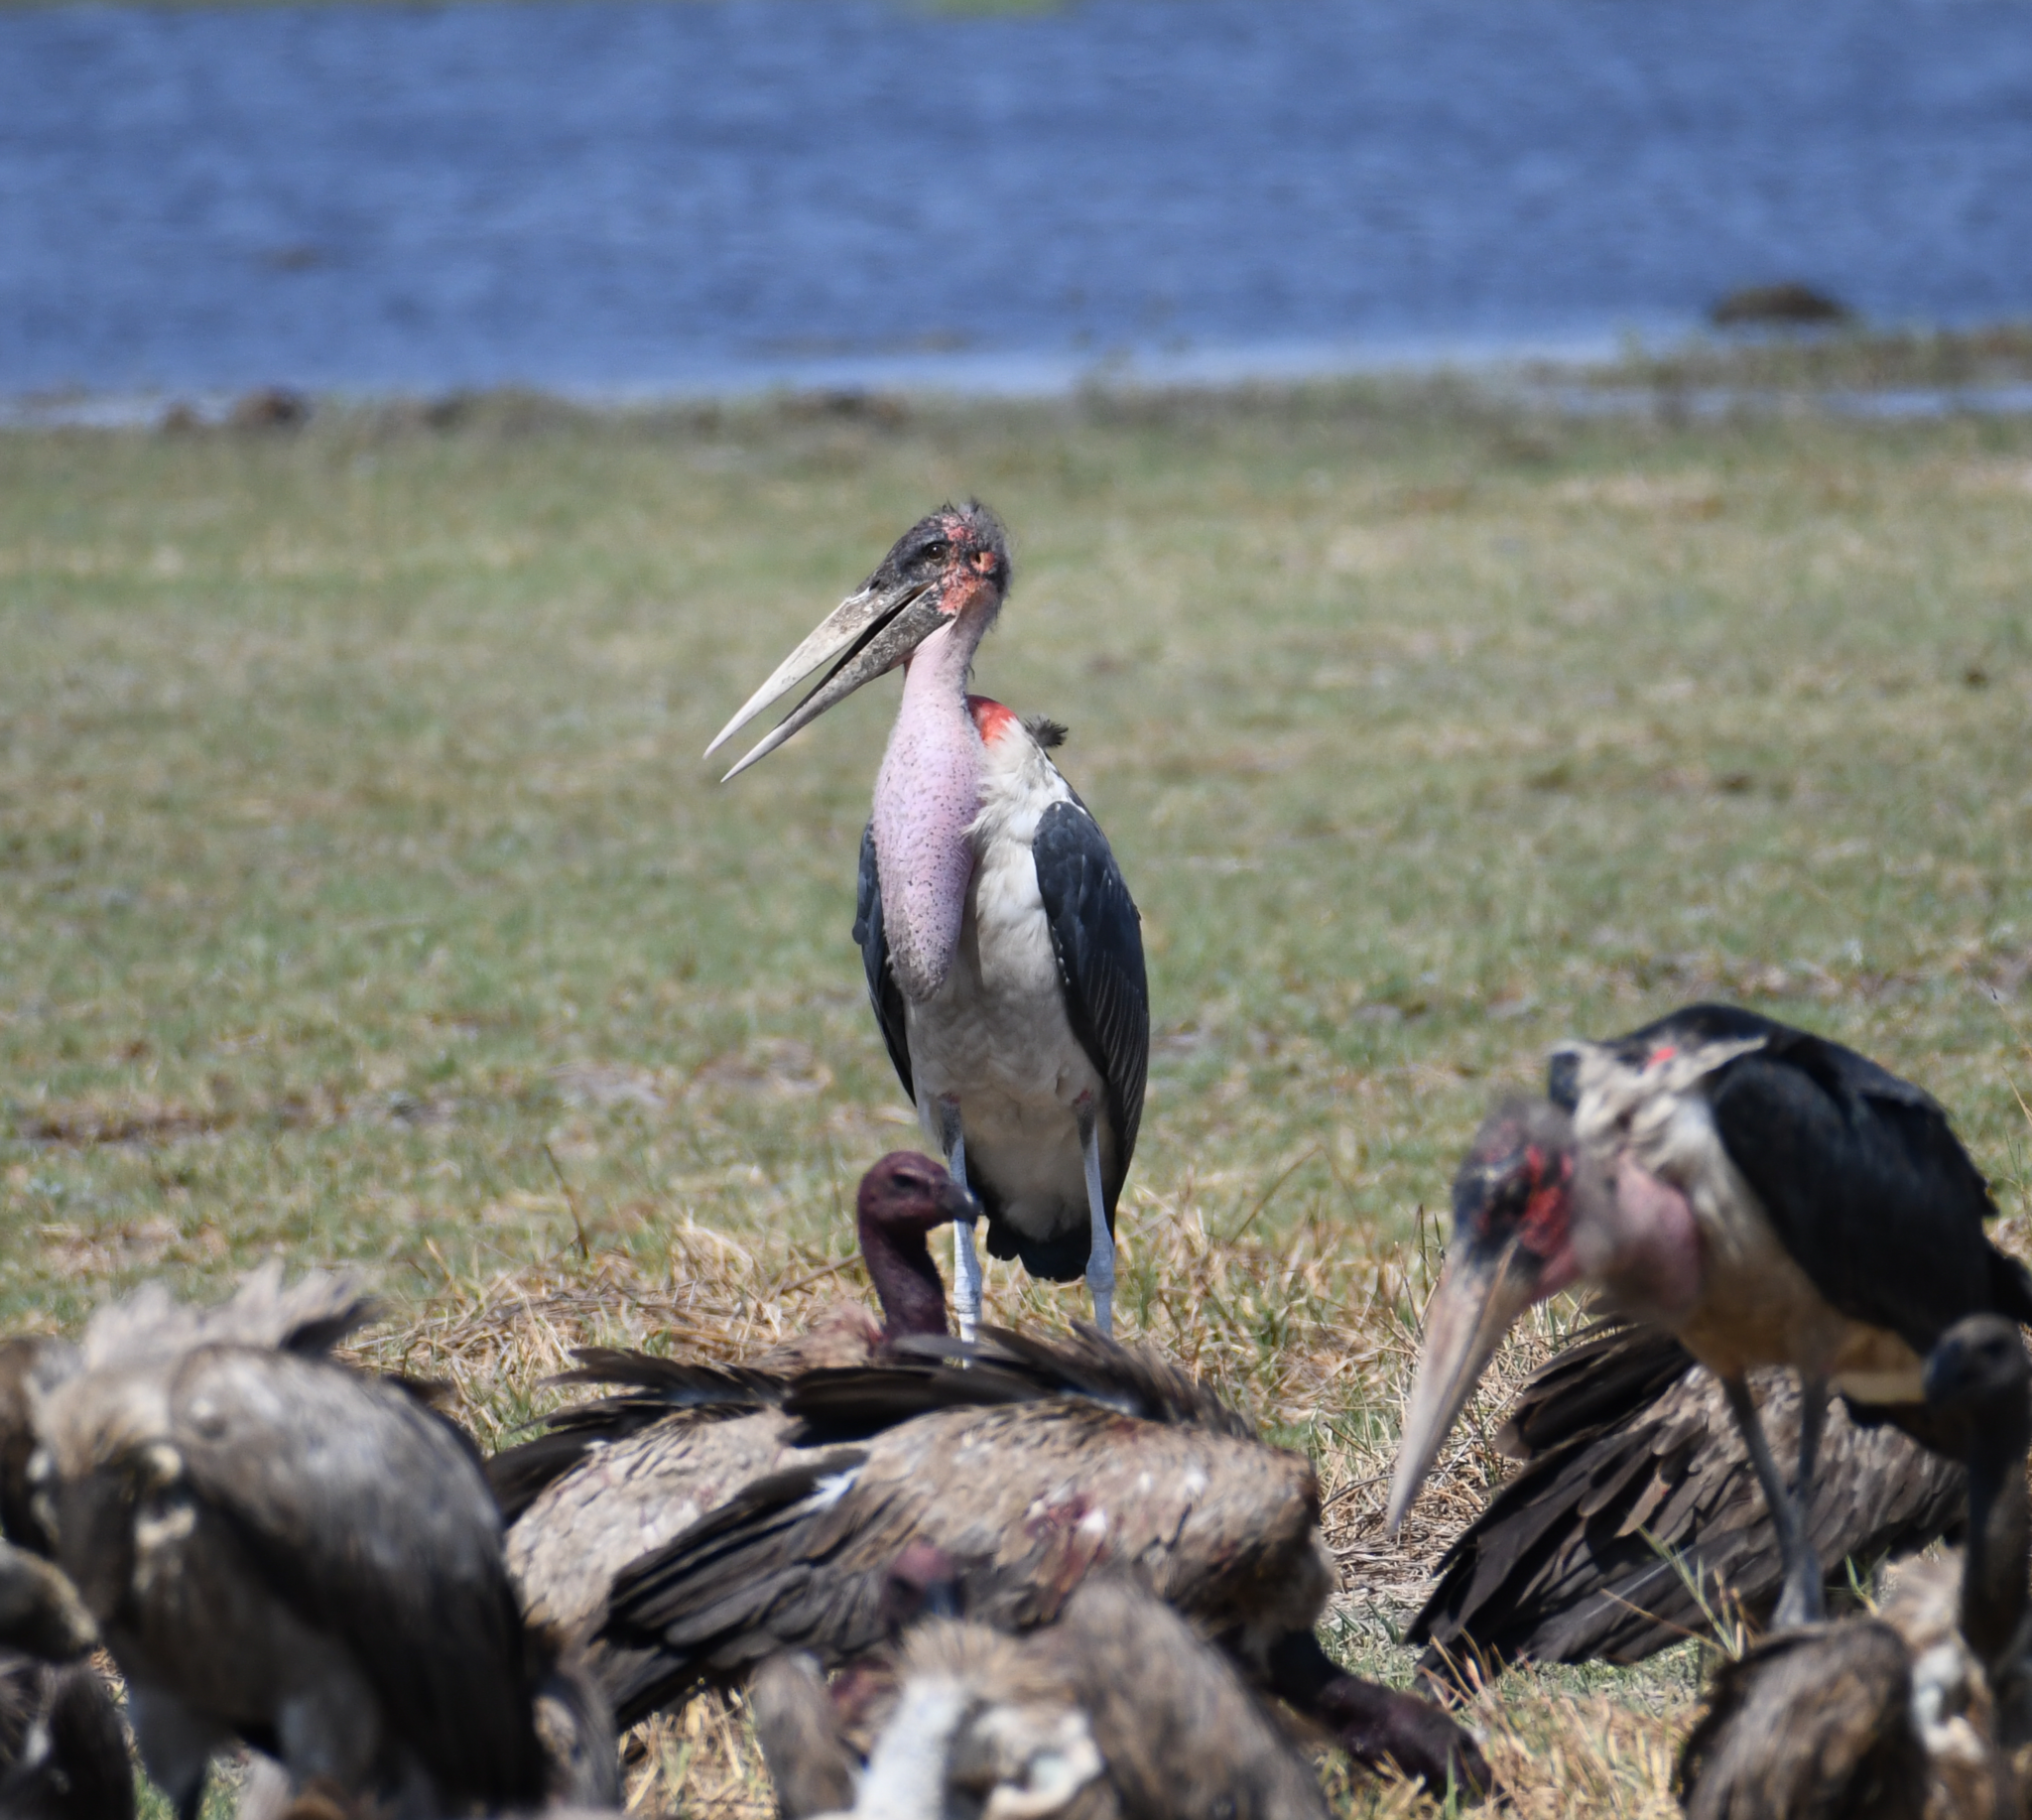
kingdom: Animalia
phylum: Chordata
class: Aves
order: Ciconiiformes
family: Ciconiidae
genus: Leptoptilos
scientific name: Leptoptilos crumenifer
